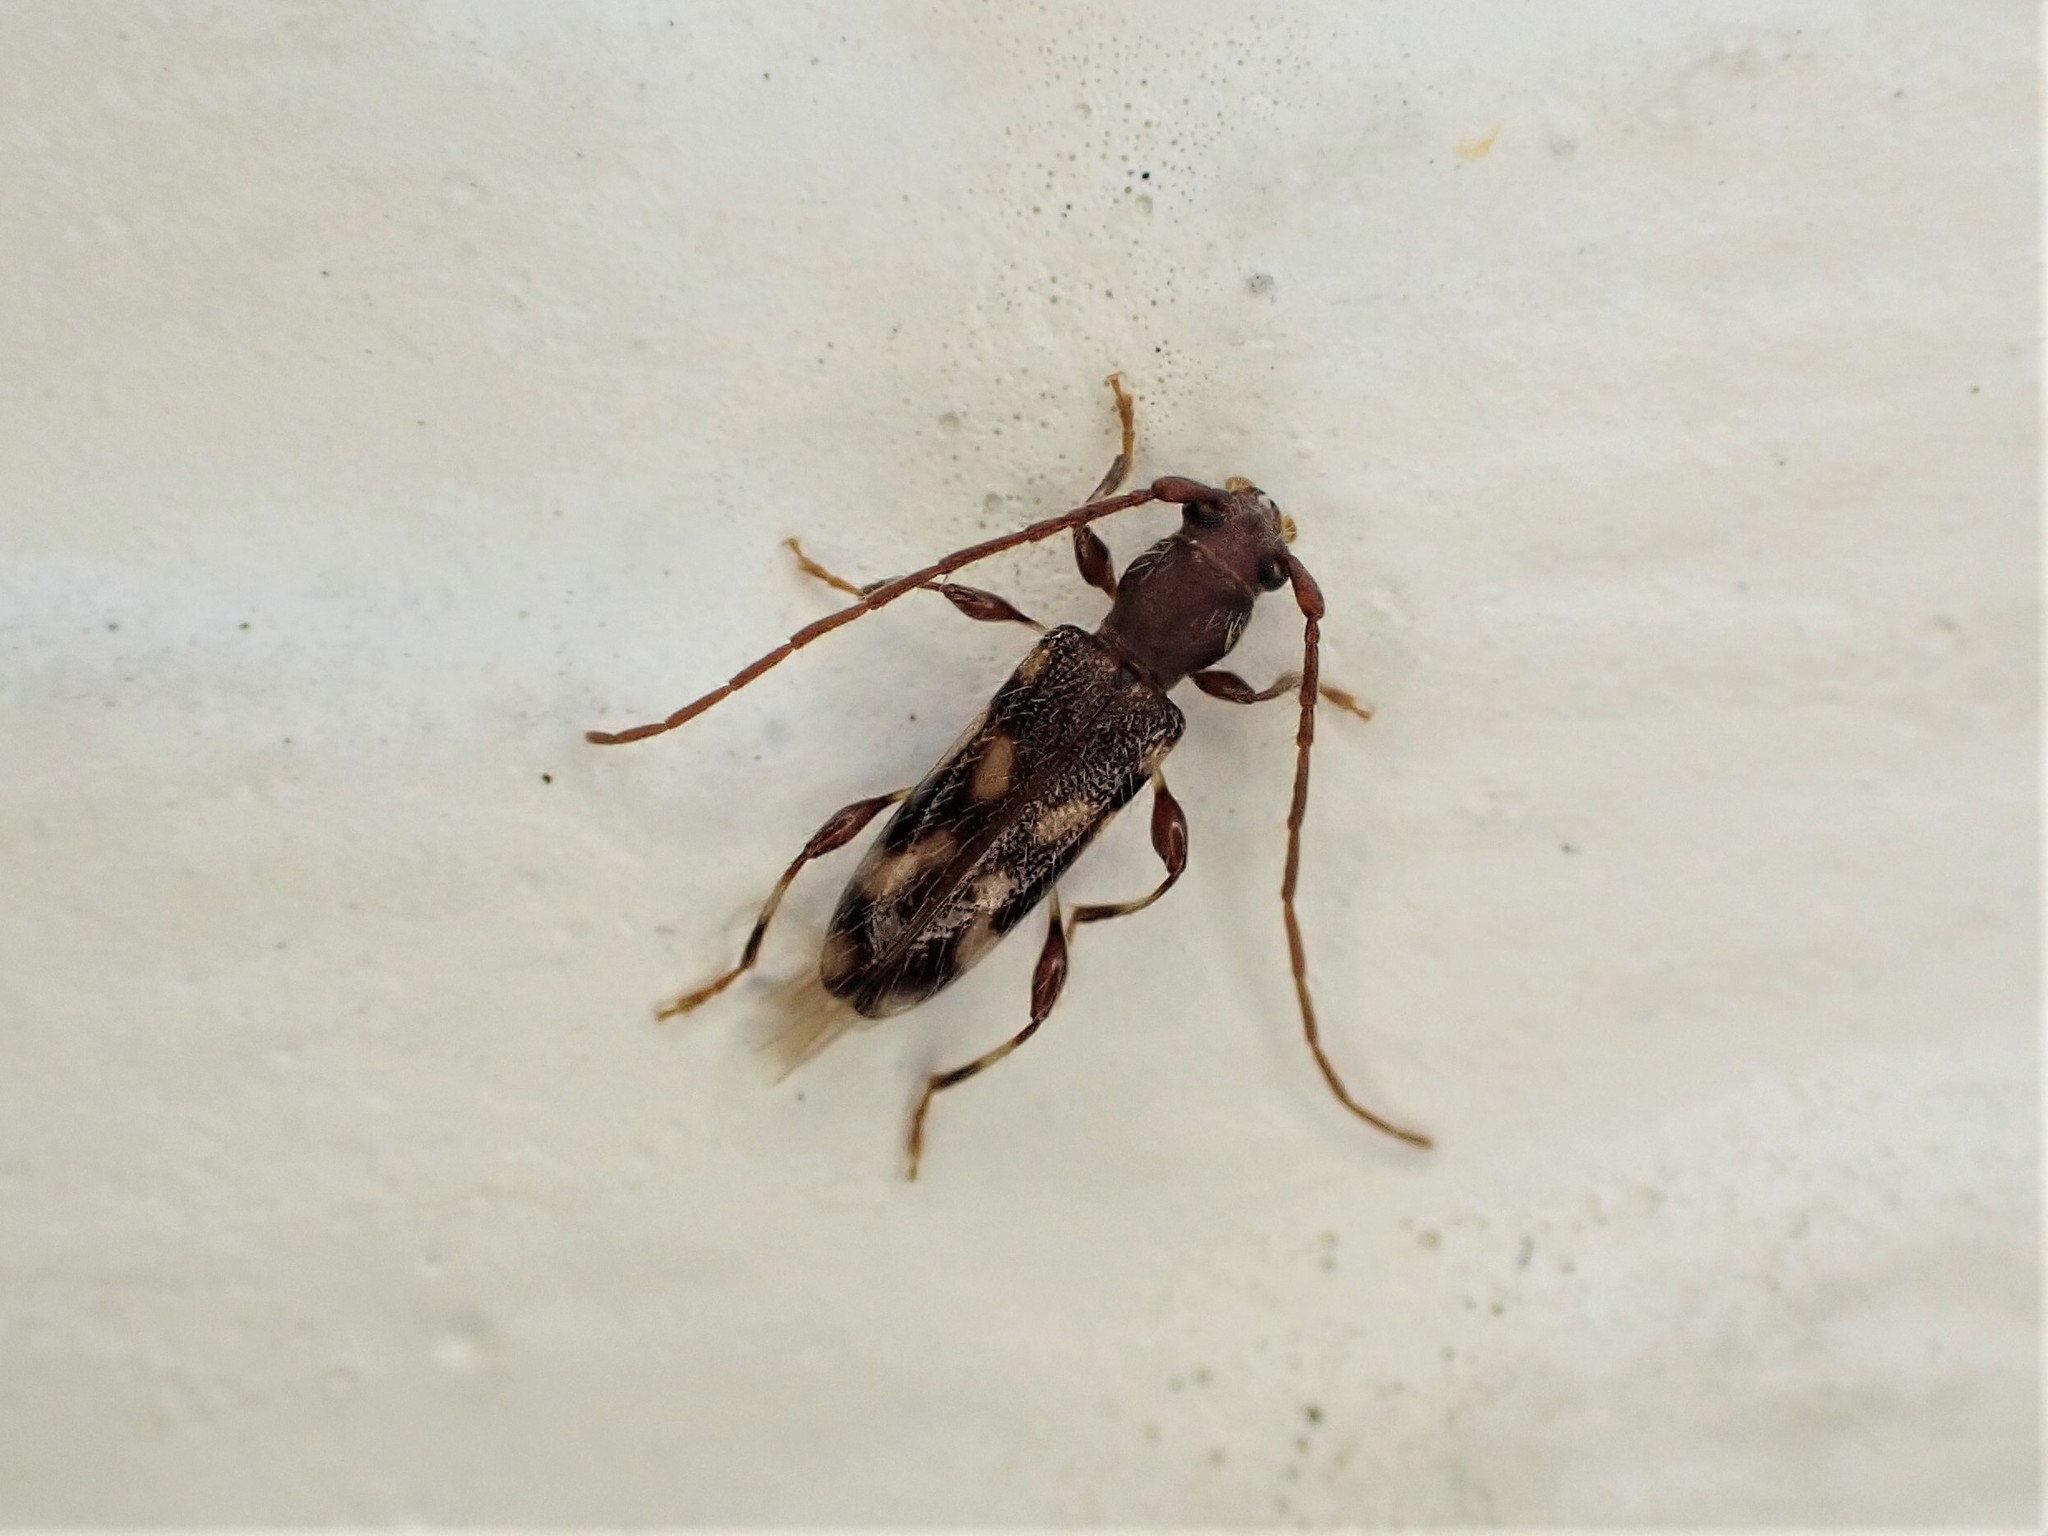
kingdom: Animalia
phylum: Arthropoda
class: Insecta
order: Coleoptera
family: Cerambycidae
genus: Bethelium
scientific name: Bethelium signiferum
